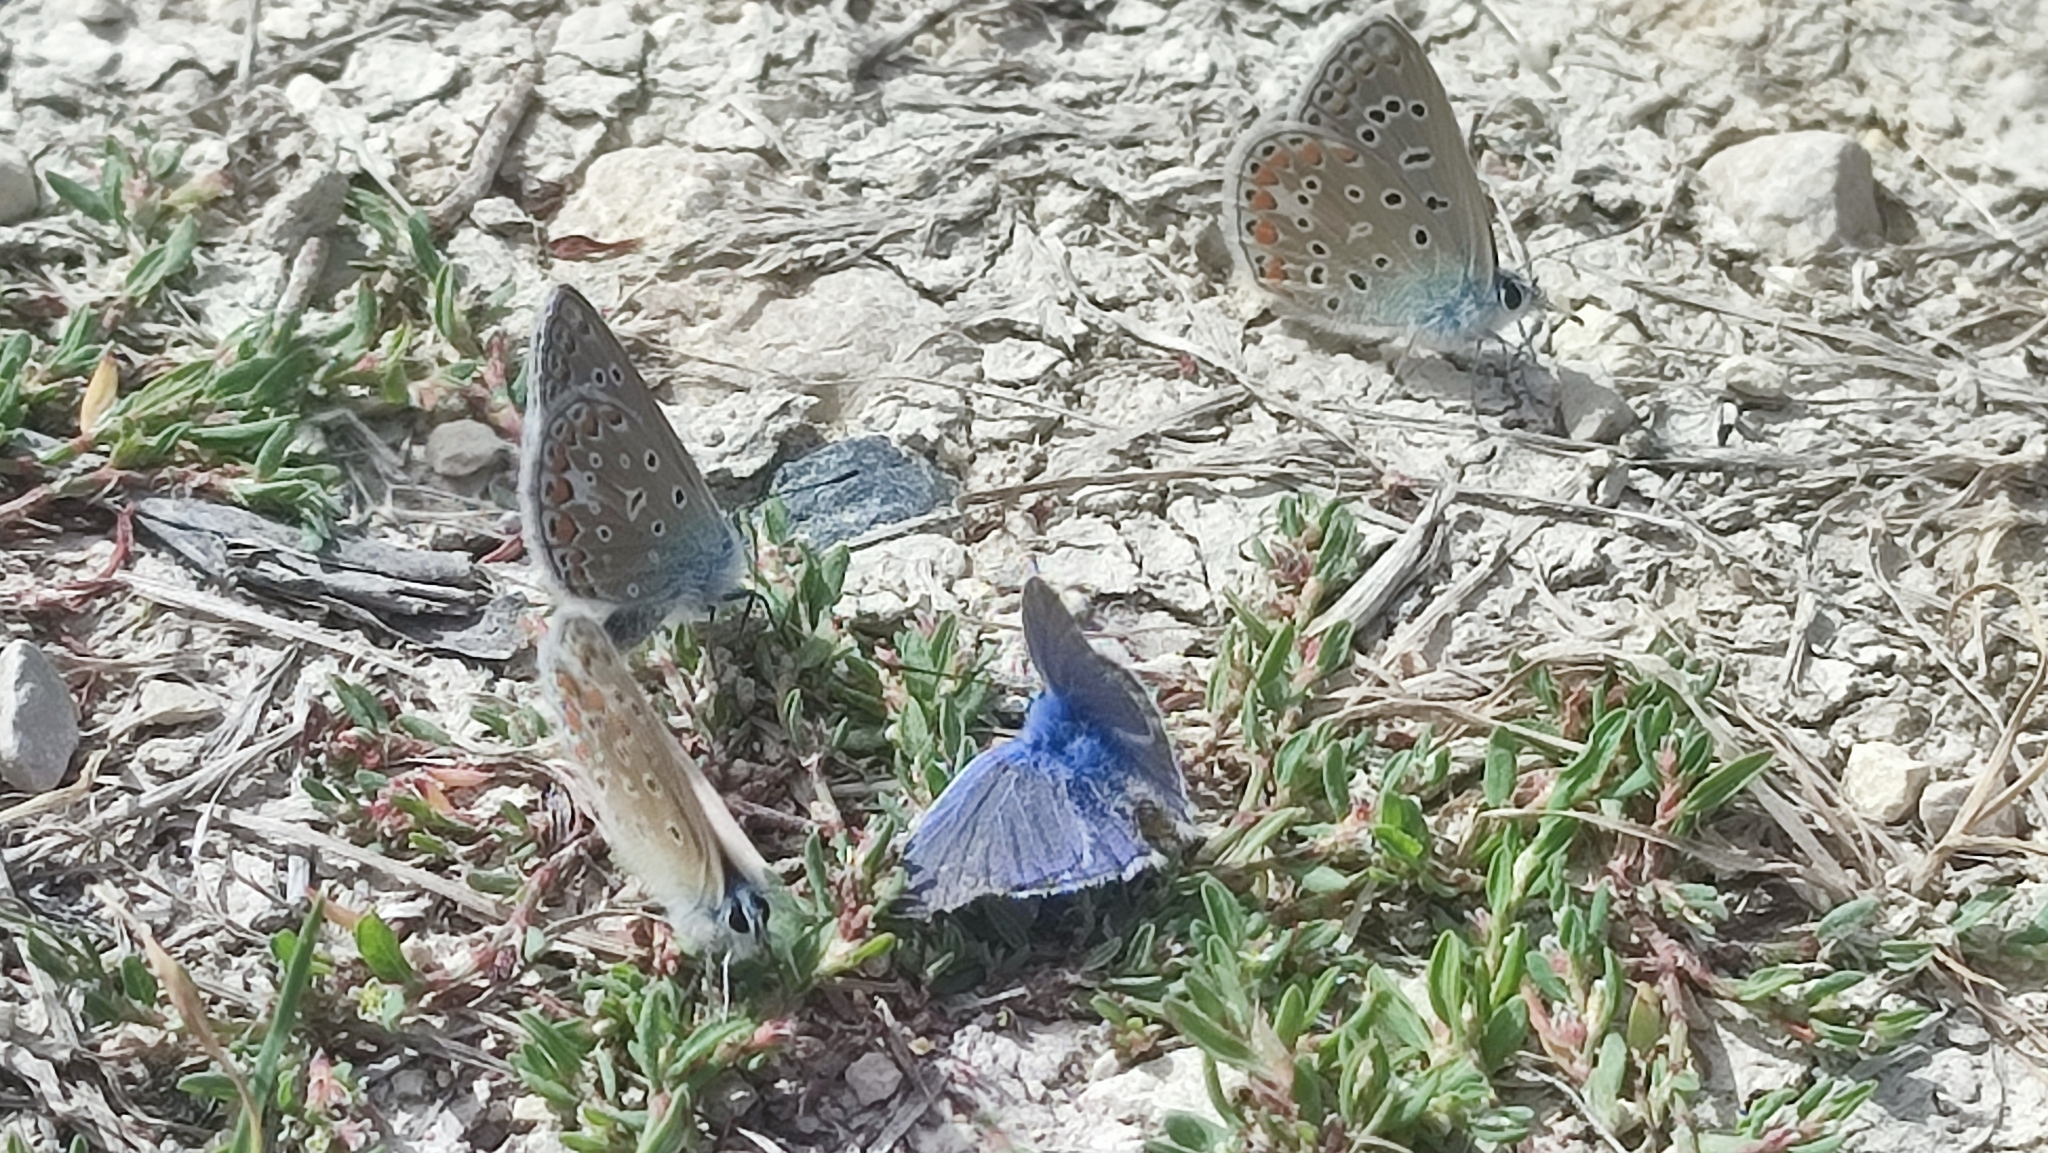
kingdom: Animalia
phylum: Arthropoda
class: Insecta
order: Lepidoptera
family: Lycaenidae
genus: Polyommatus
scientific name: Polyommatus icarus
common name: Common blue
